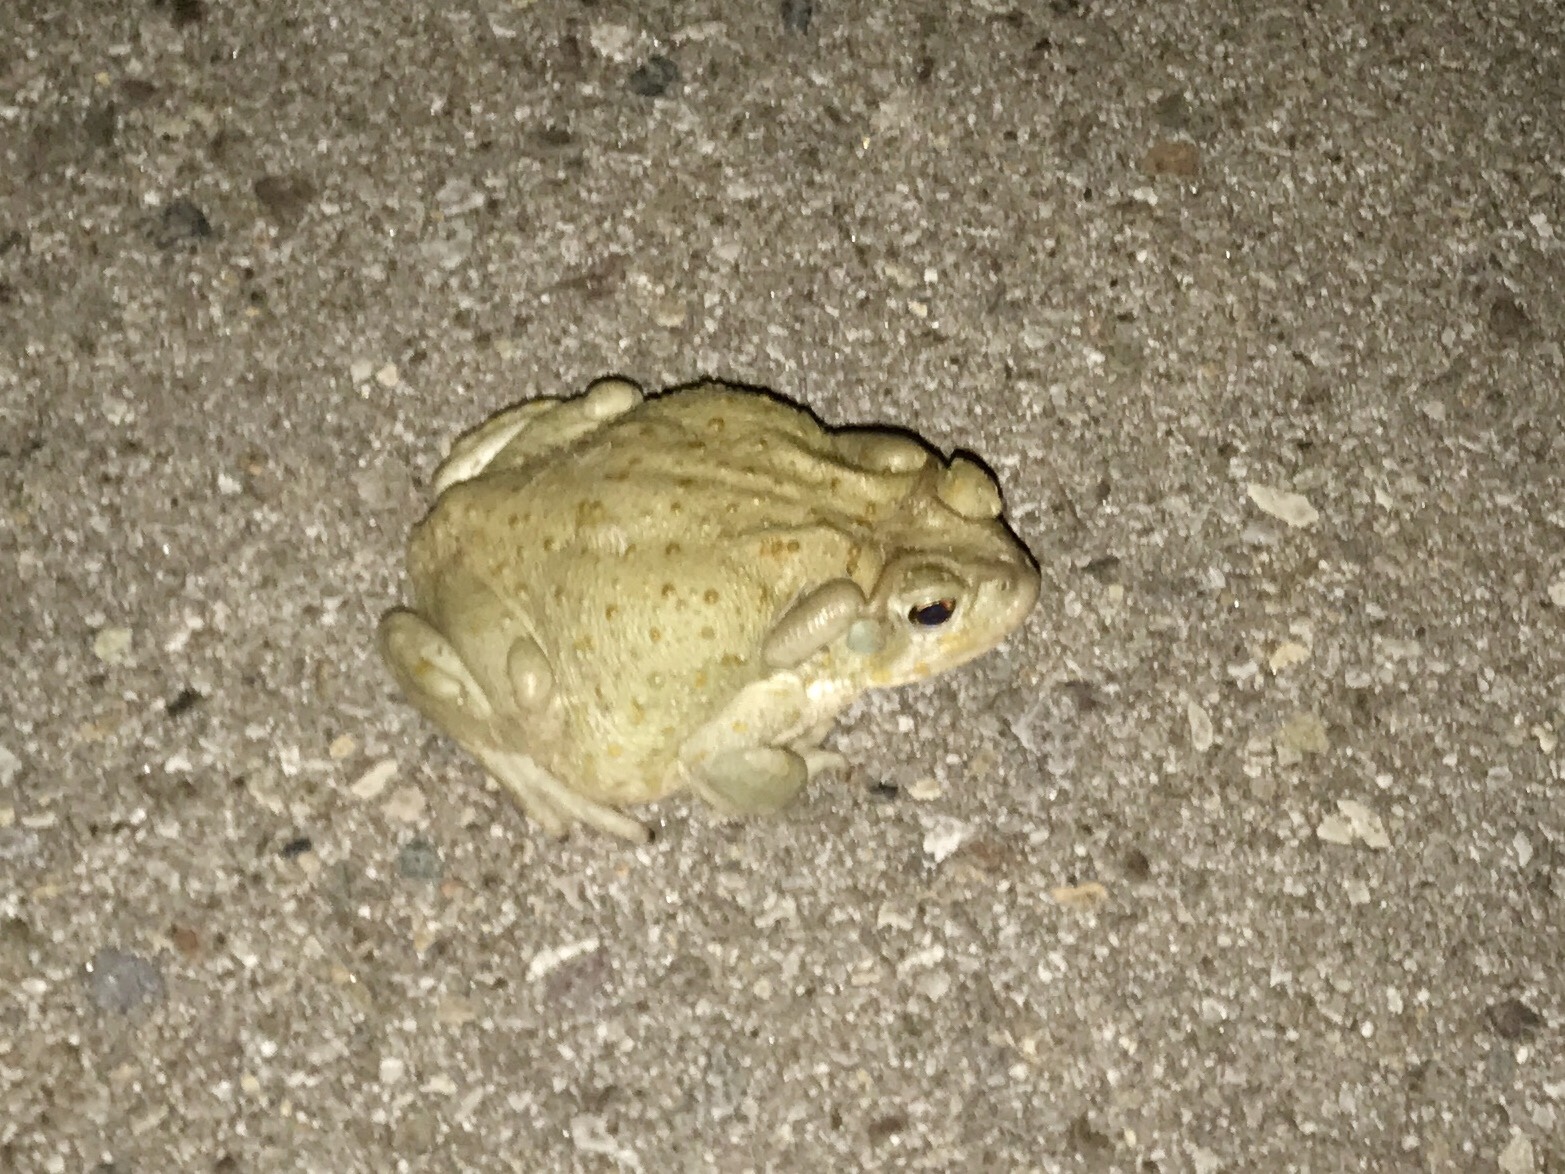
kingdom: Animalia
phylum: Chordata
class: Amphibia
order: Anura
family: Bufonidae
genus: Incilius
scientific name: Incilius alvarius
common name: Sonoran desert toad
